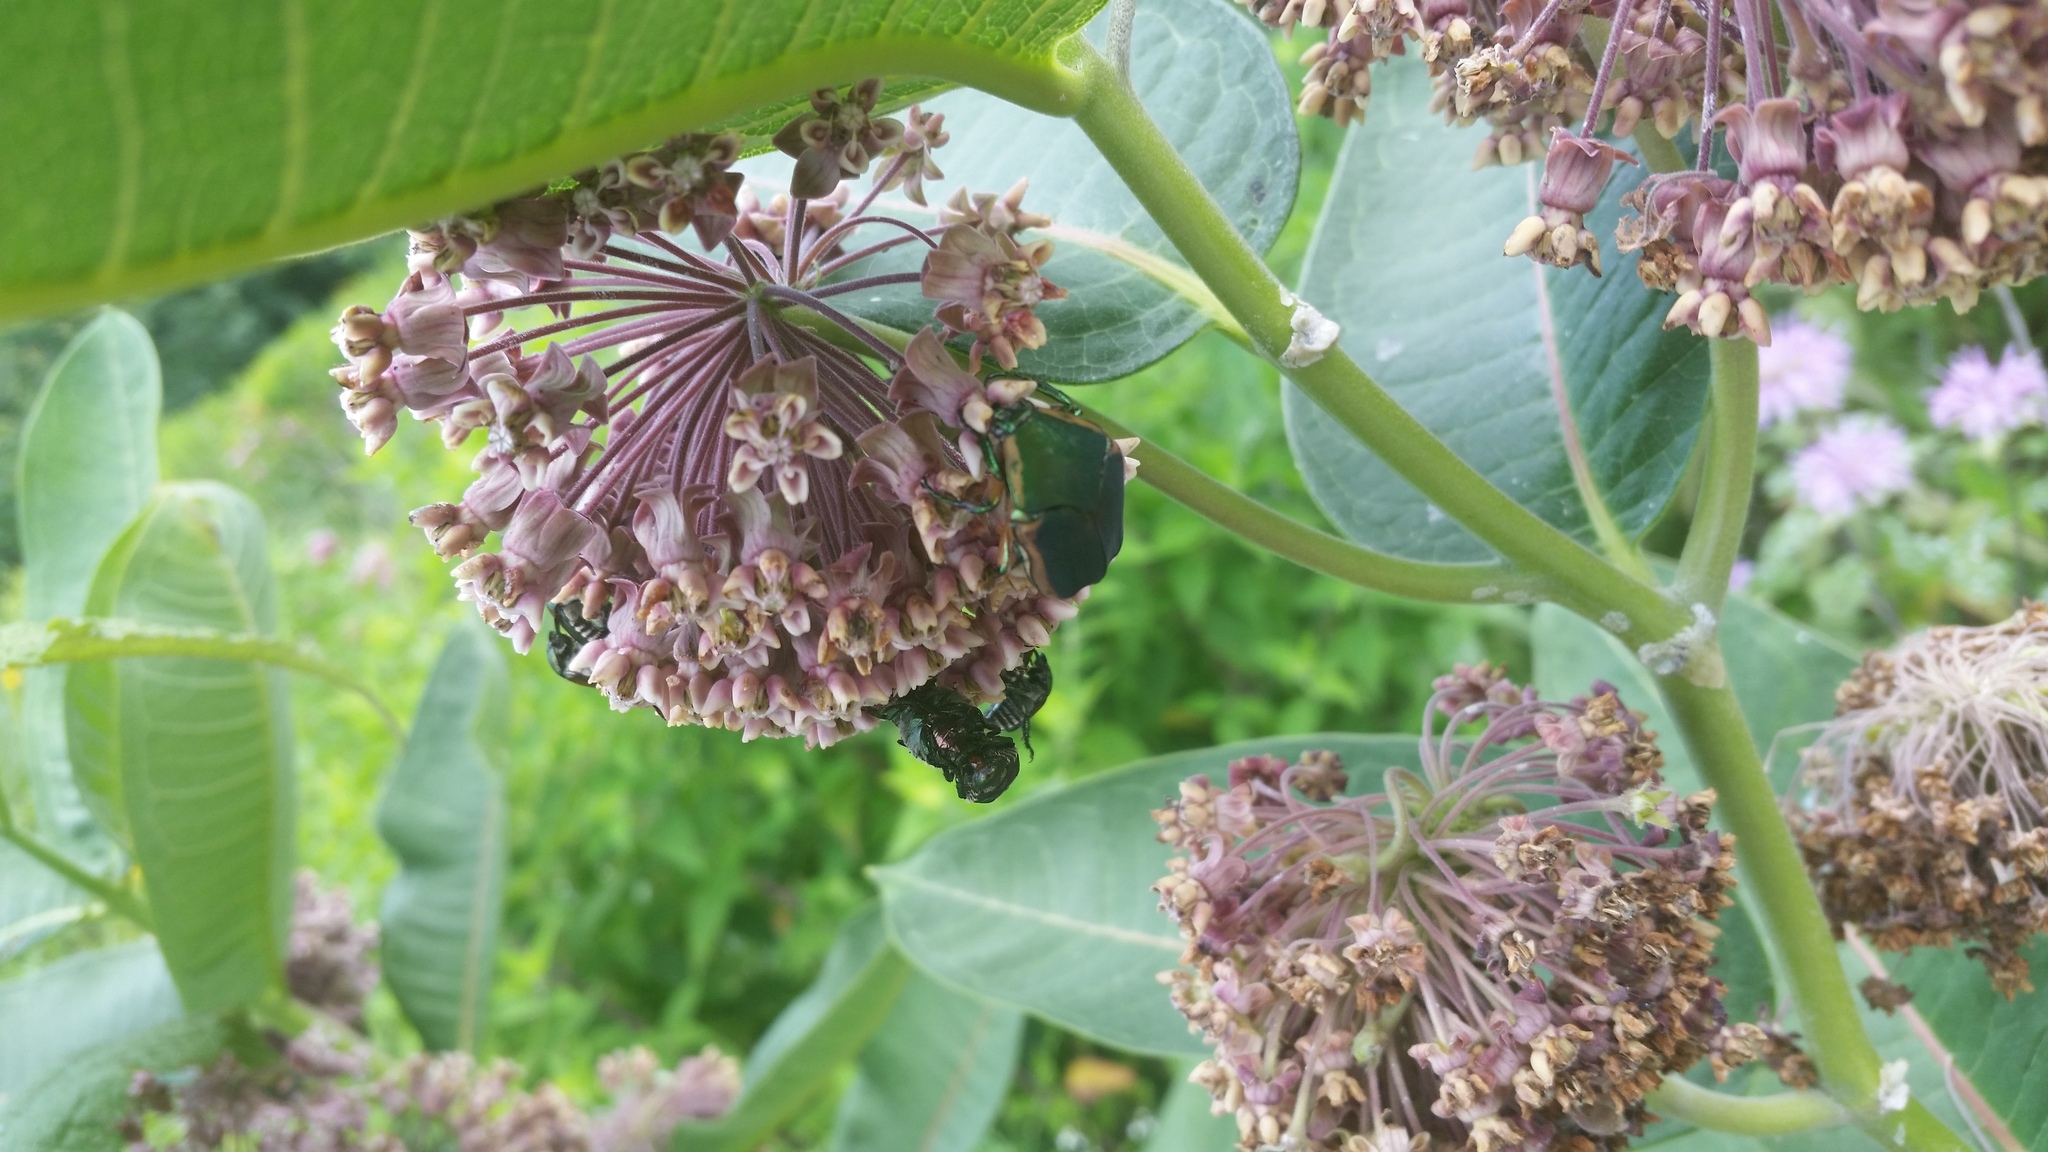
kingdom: Animalia
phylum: Arthropoda
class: Insecta
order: Coleoptera
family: Scarabaeidae
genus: Cotinis
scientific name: Cotinis nitida
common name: Common green june beetle
